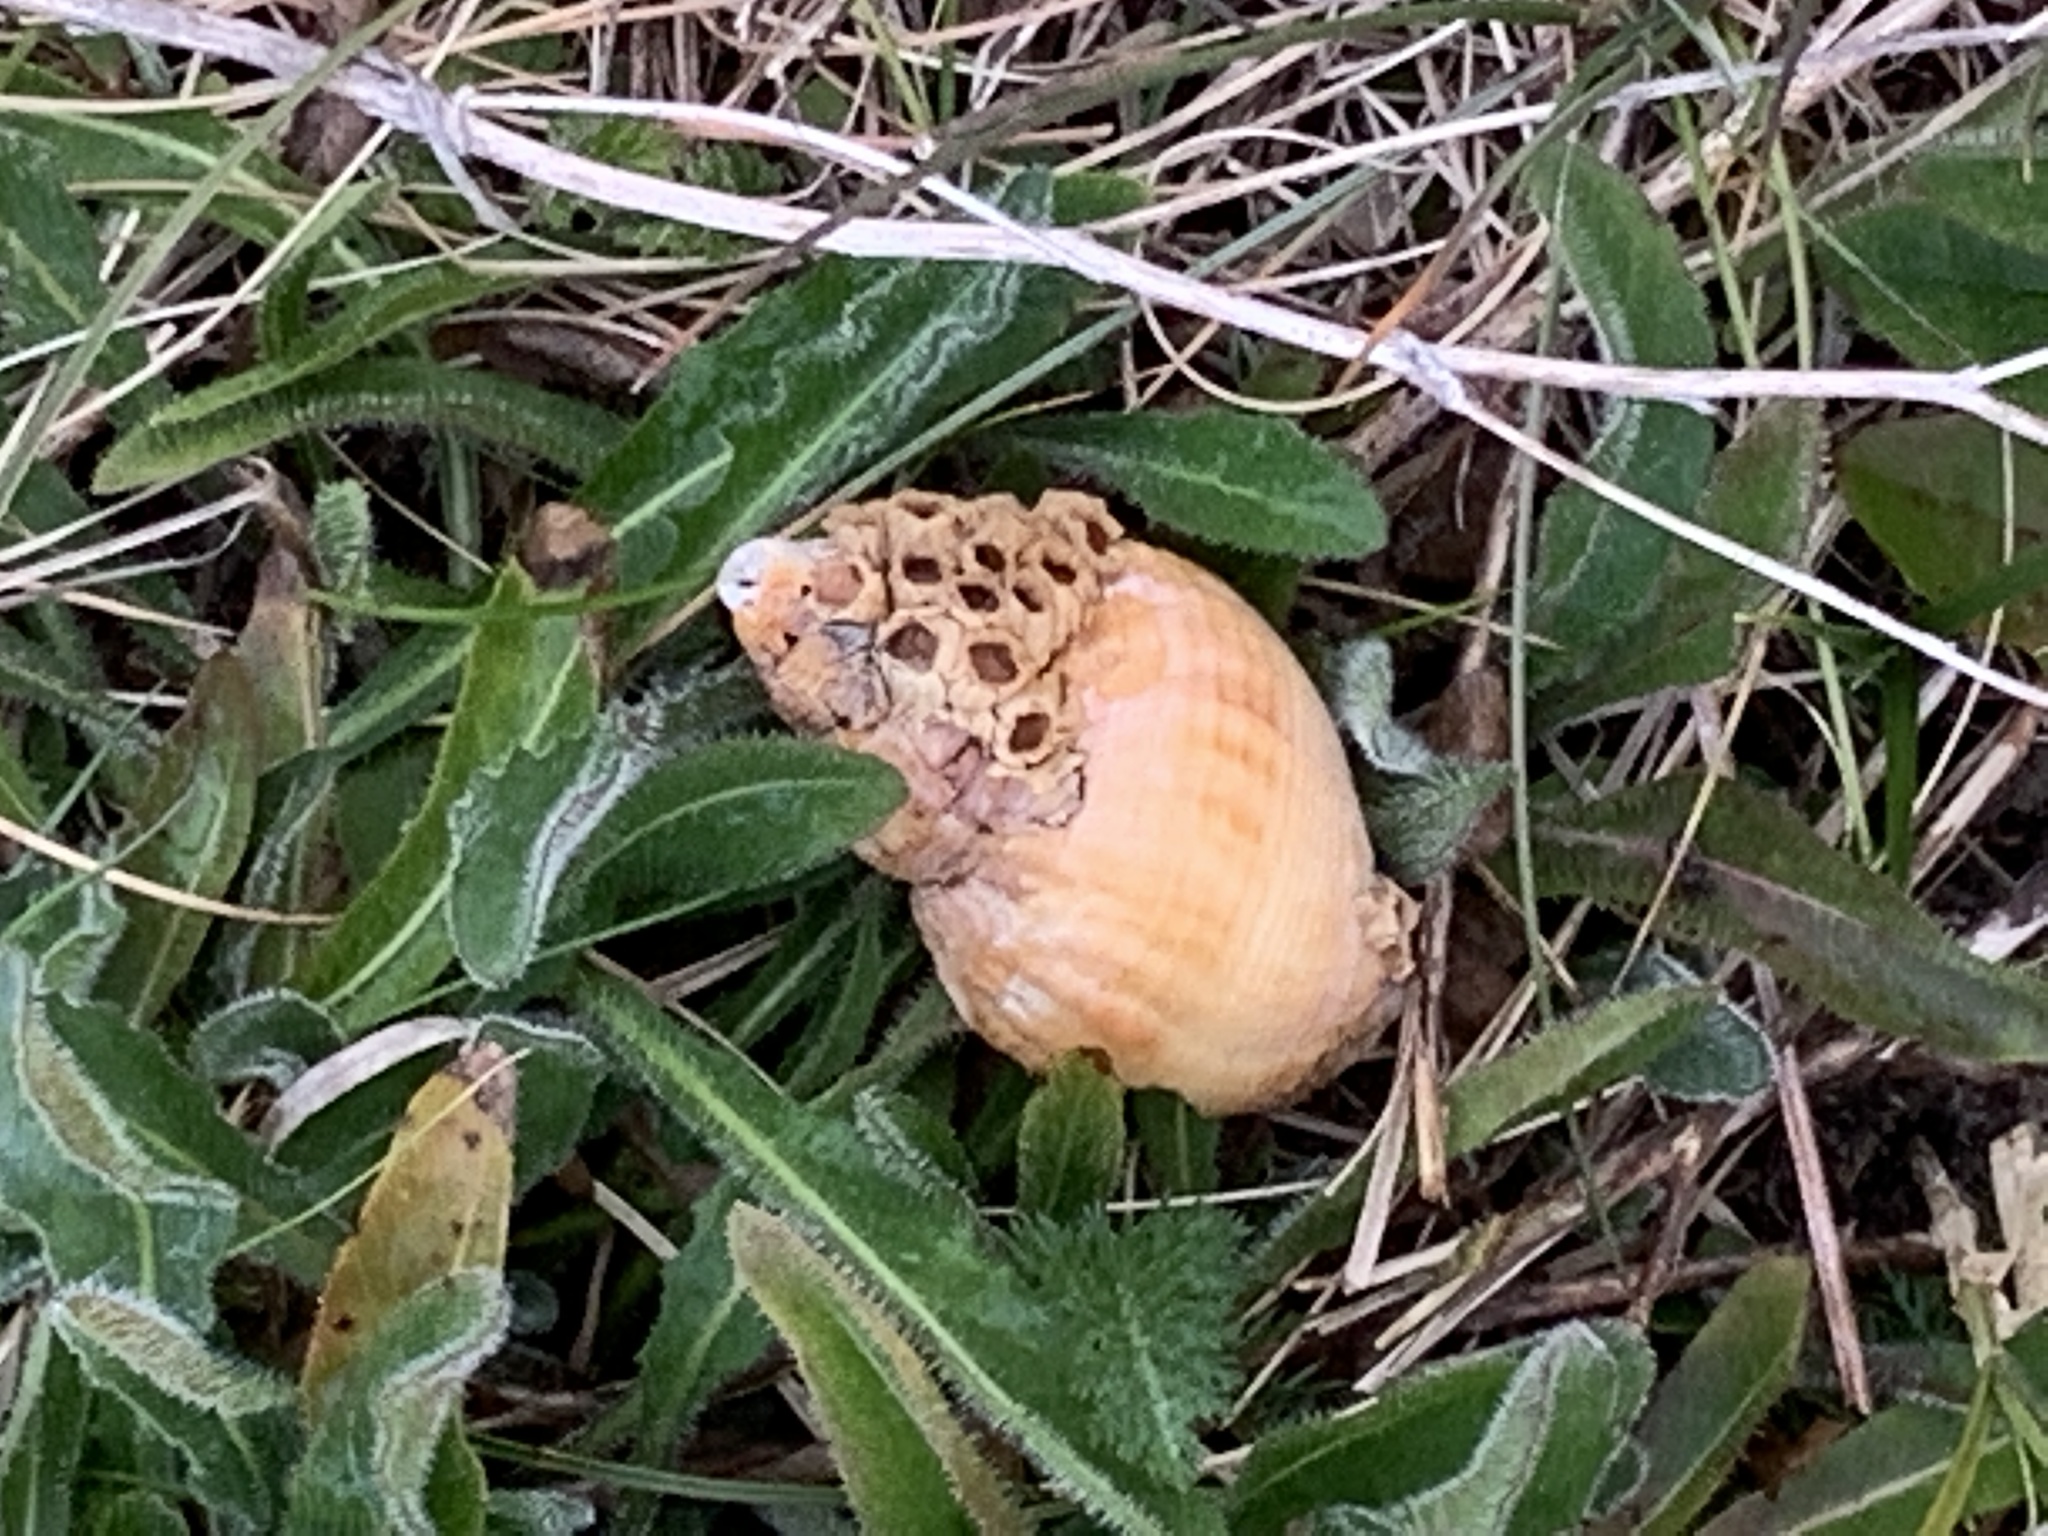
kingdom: Animalia
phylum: Mollusca
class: Gastropoda
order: Neogastropoda
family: Buccinidae
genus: Buccinum
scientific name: Buccinum undatum
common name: Common whelk
